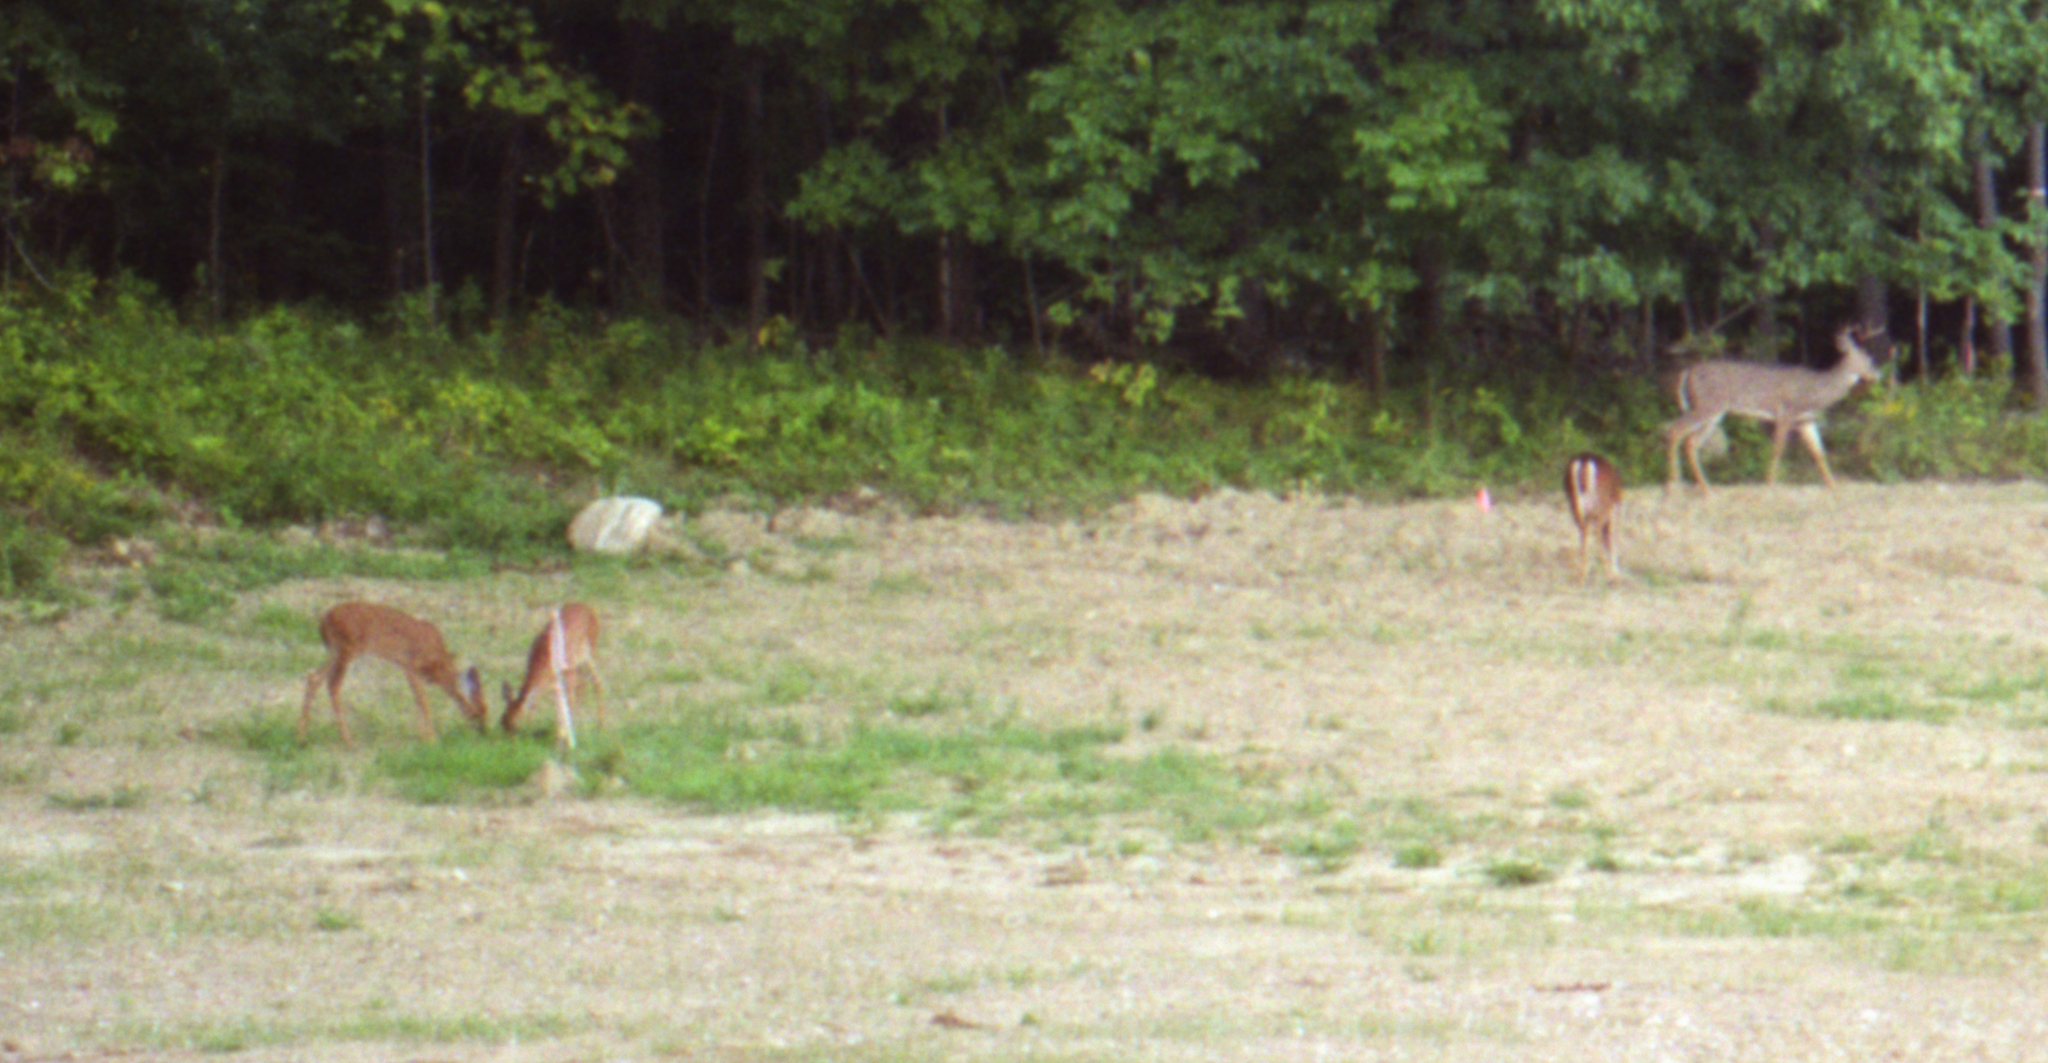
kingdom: Animalia
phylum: Chordata
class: Mammalia
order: Artiodactyla
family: Cervidae
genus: Odocoileus
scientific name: Odocoileus virginianus
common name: White-tailed deer
